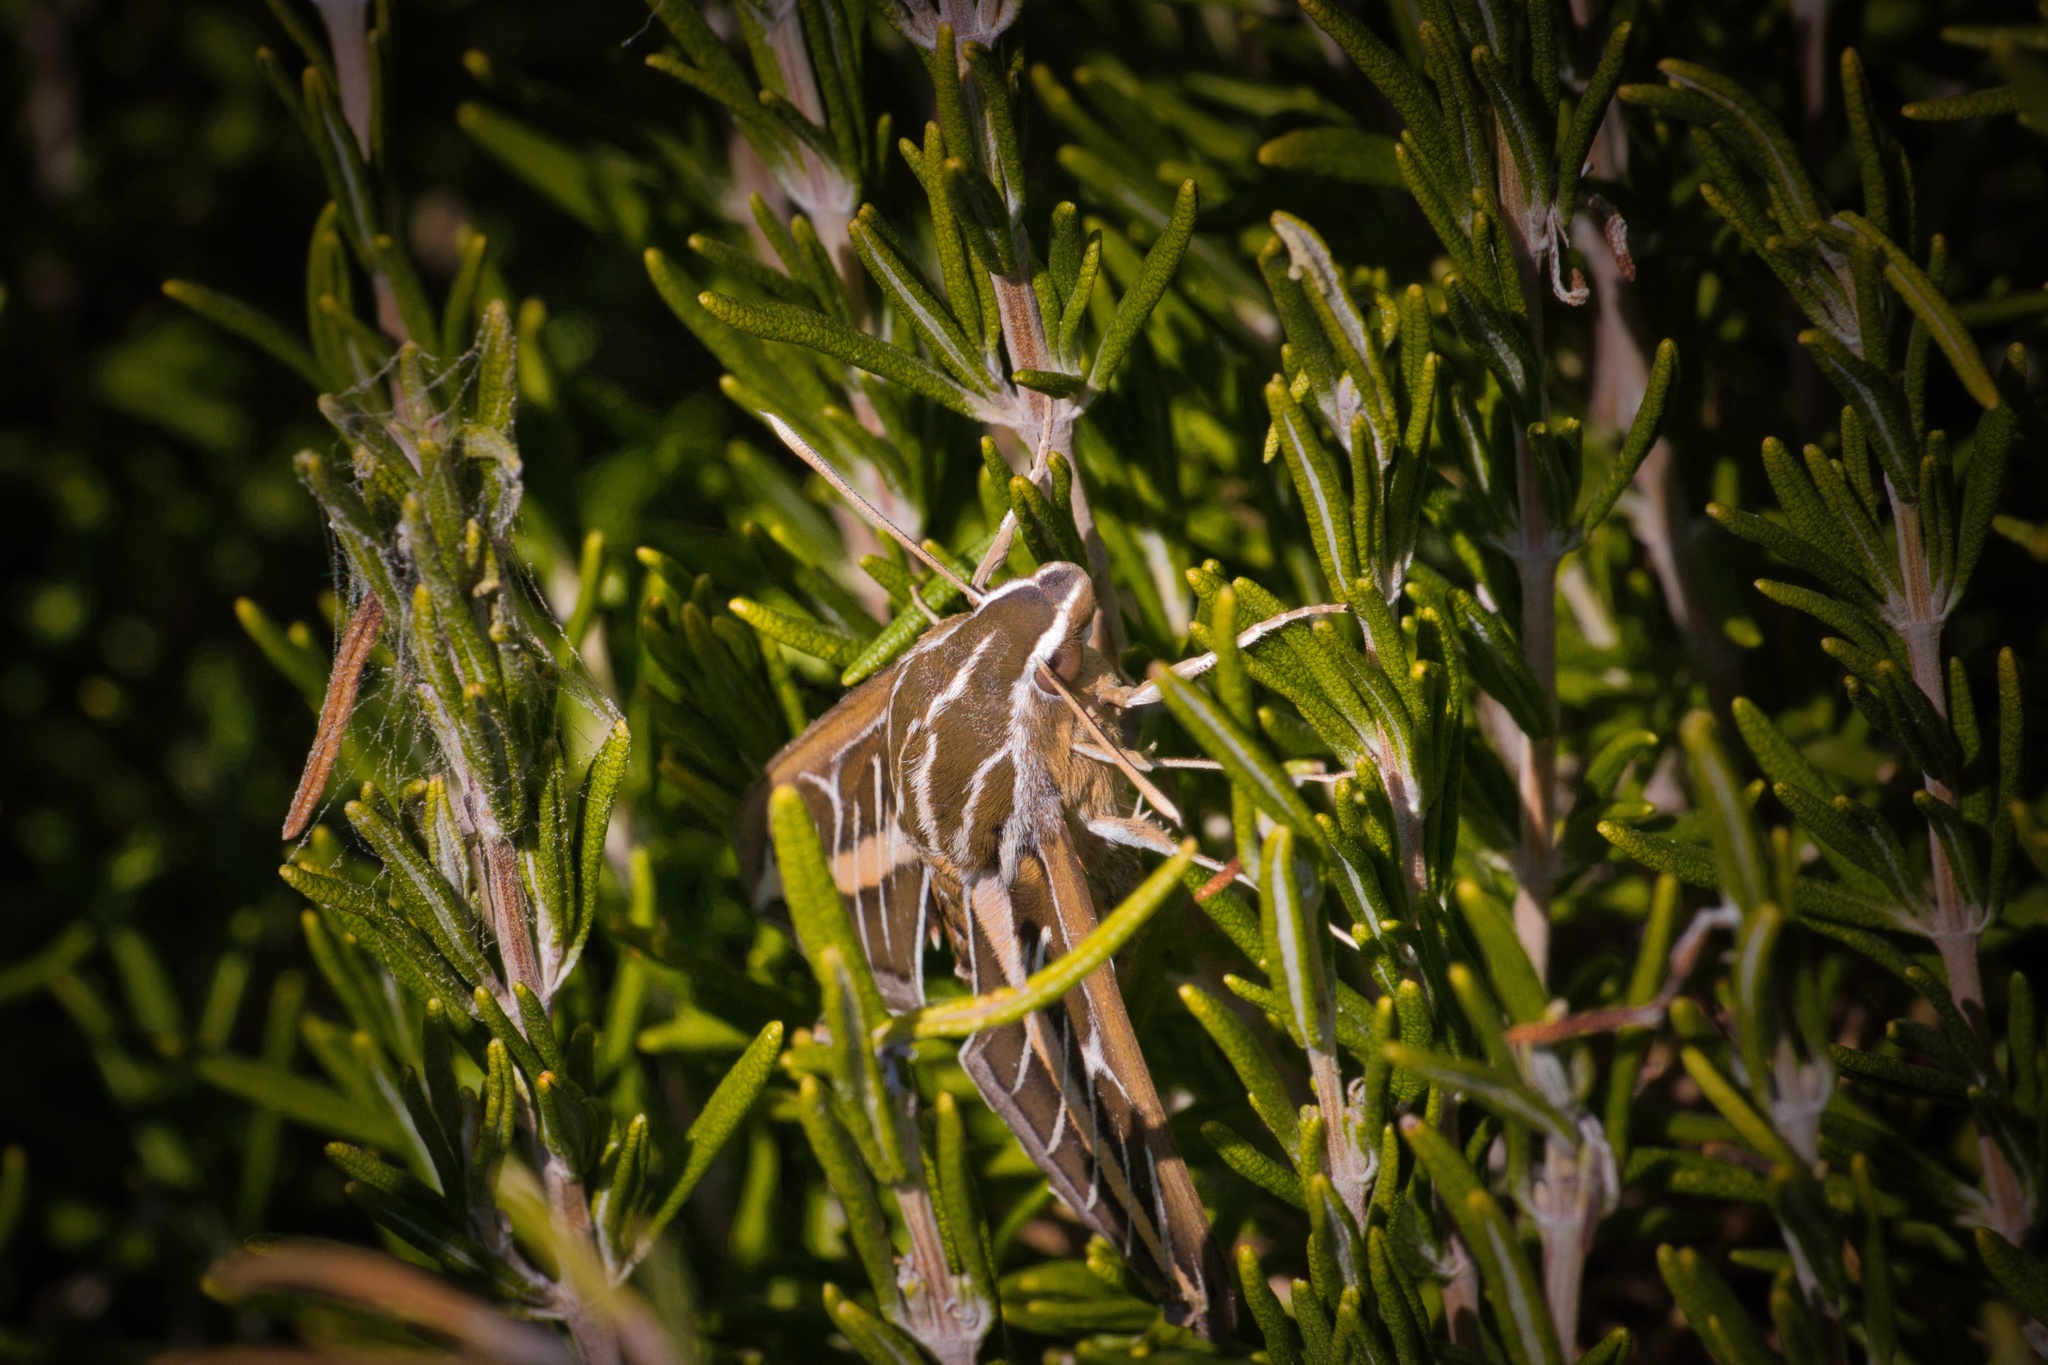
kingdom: Animalia
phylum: Arthropoda
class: Insecta
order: Lepidoptera
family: Sphingidae
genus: Hyles
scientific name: Hyles lineata
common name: White-lined sphinx
